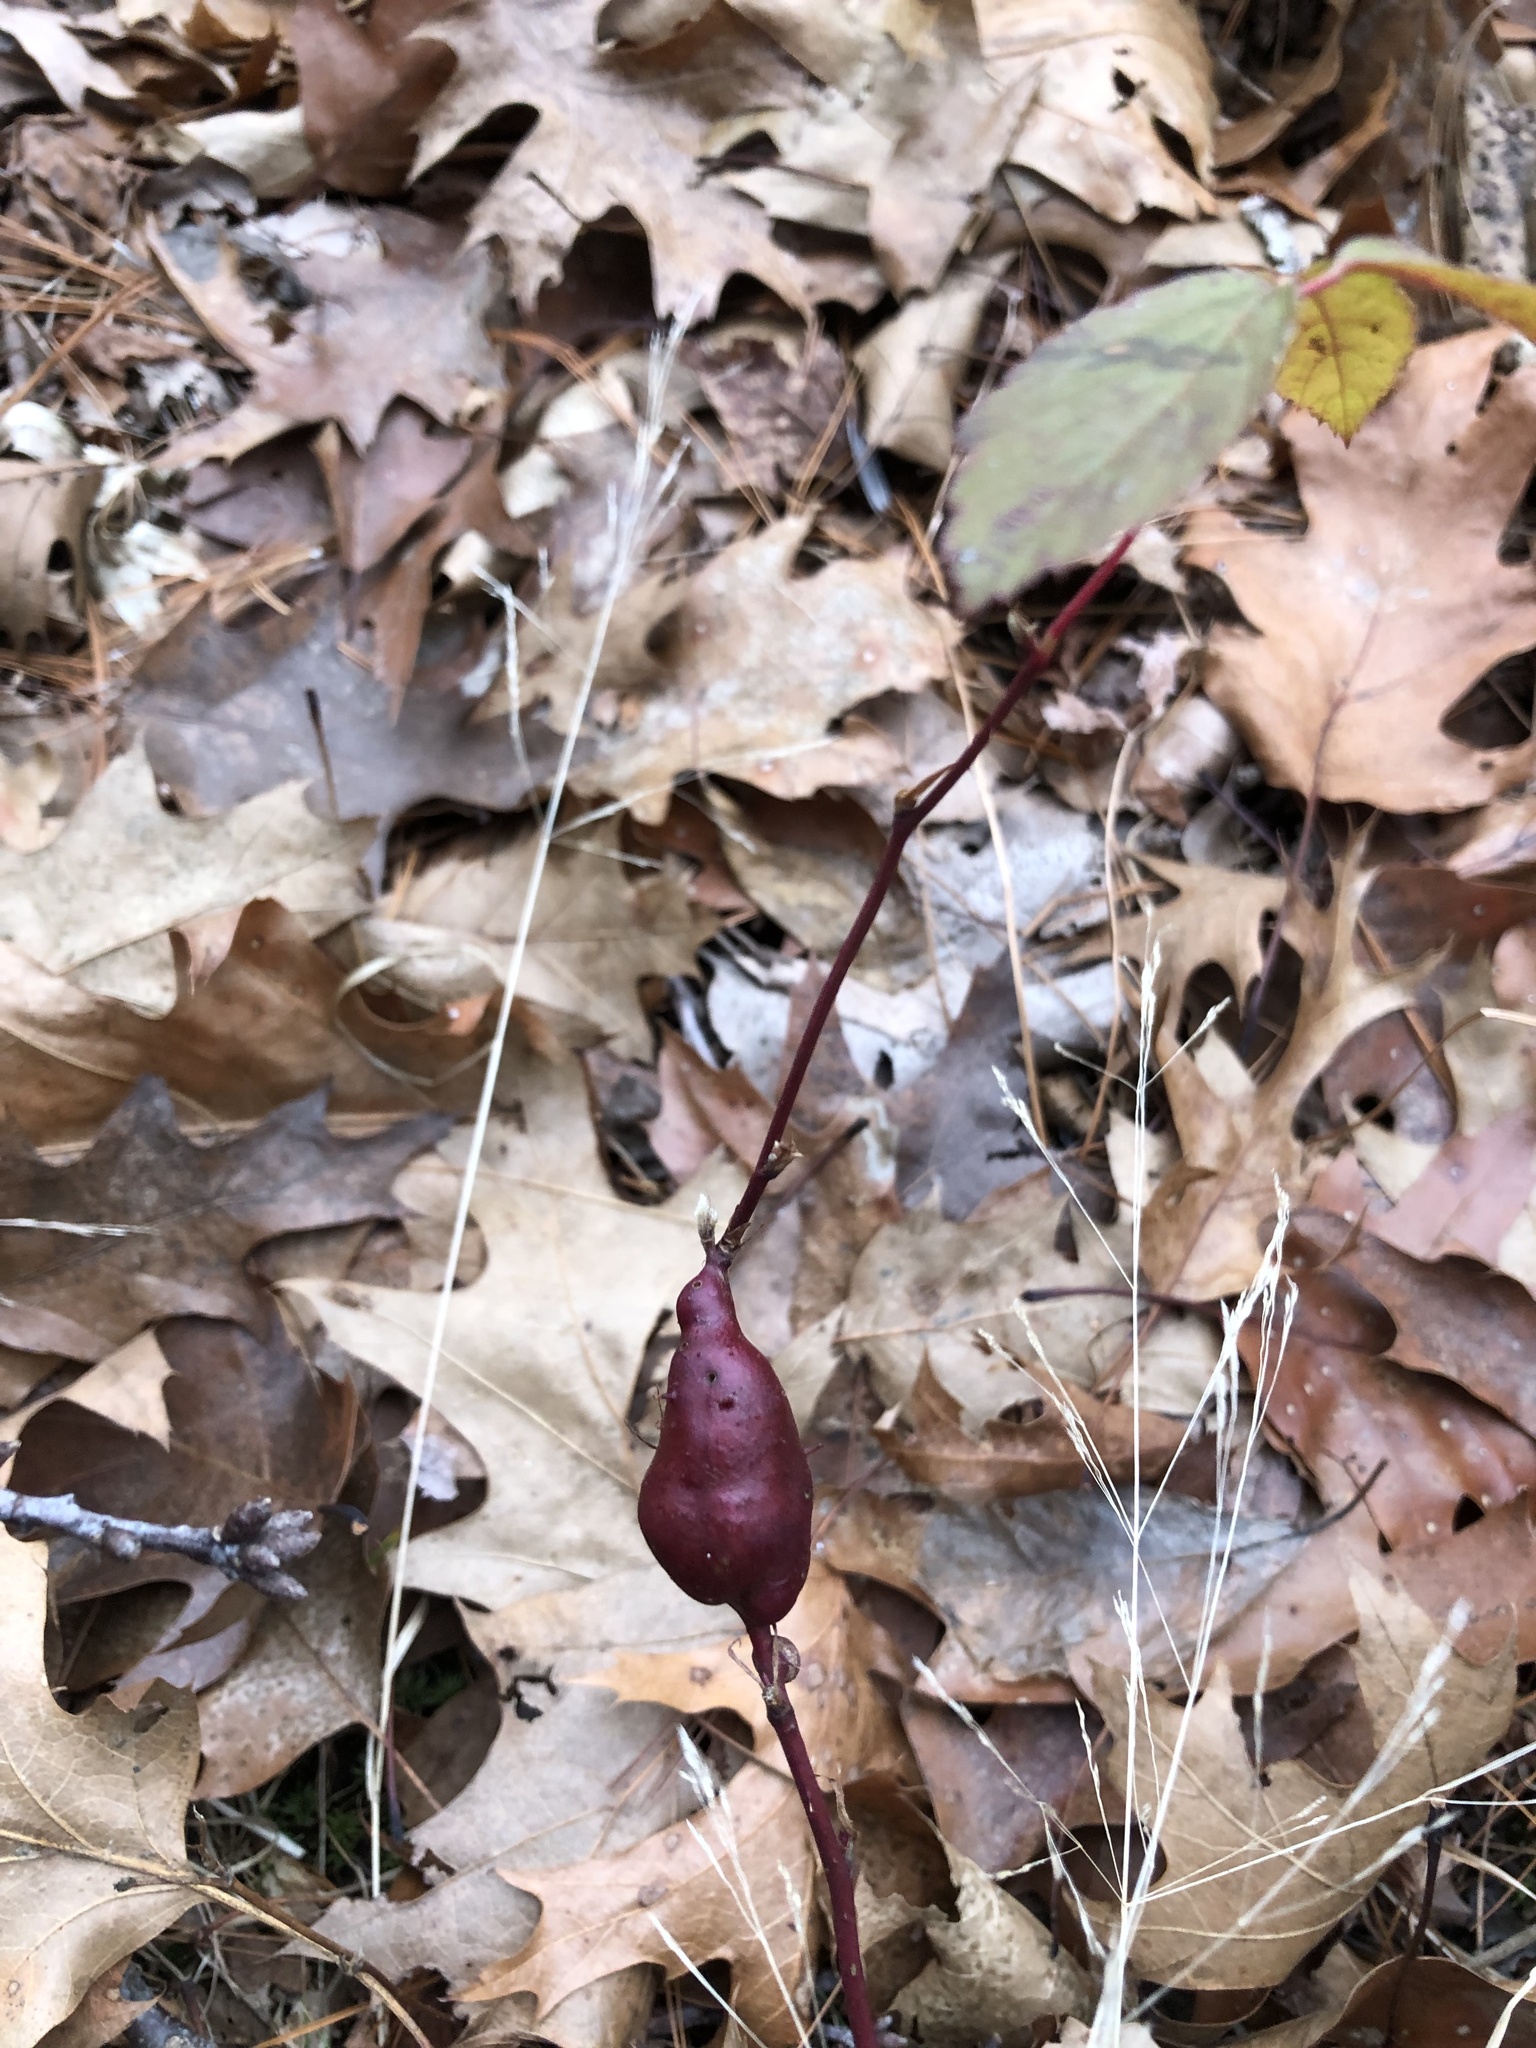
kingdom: Animalia
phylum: Arthropoda
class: Insecta
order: Hymenoptera
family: Cynipidae
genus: Diastrophus
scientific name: Diastrophus
